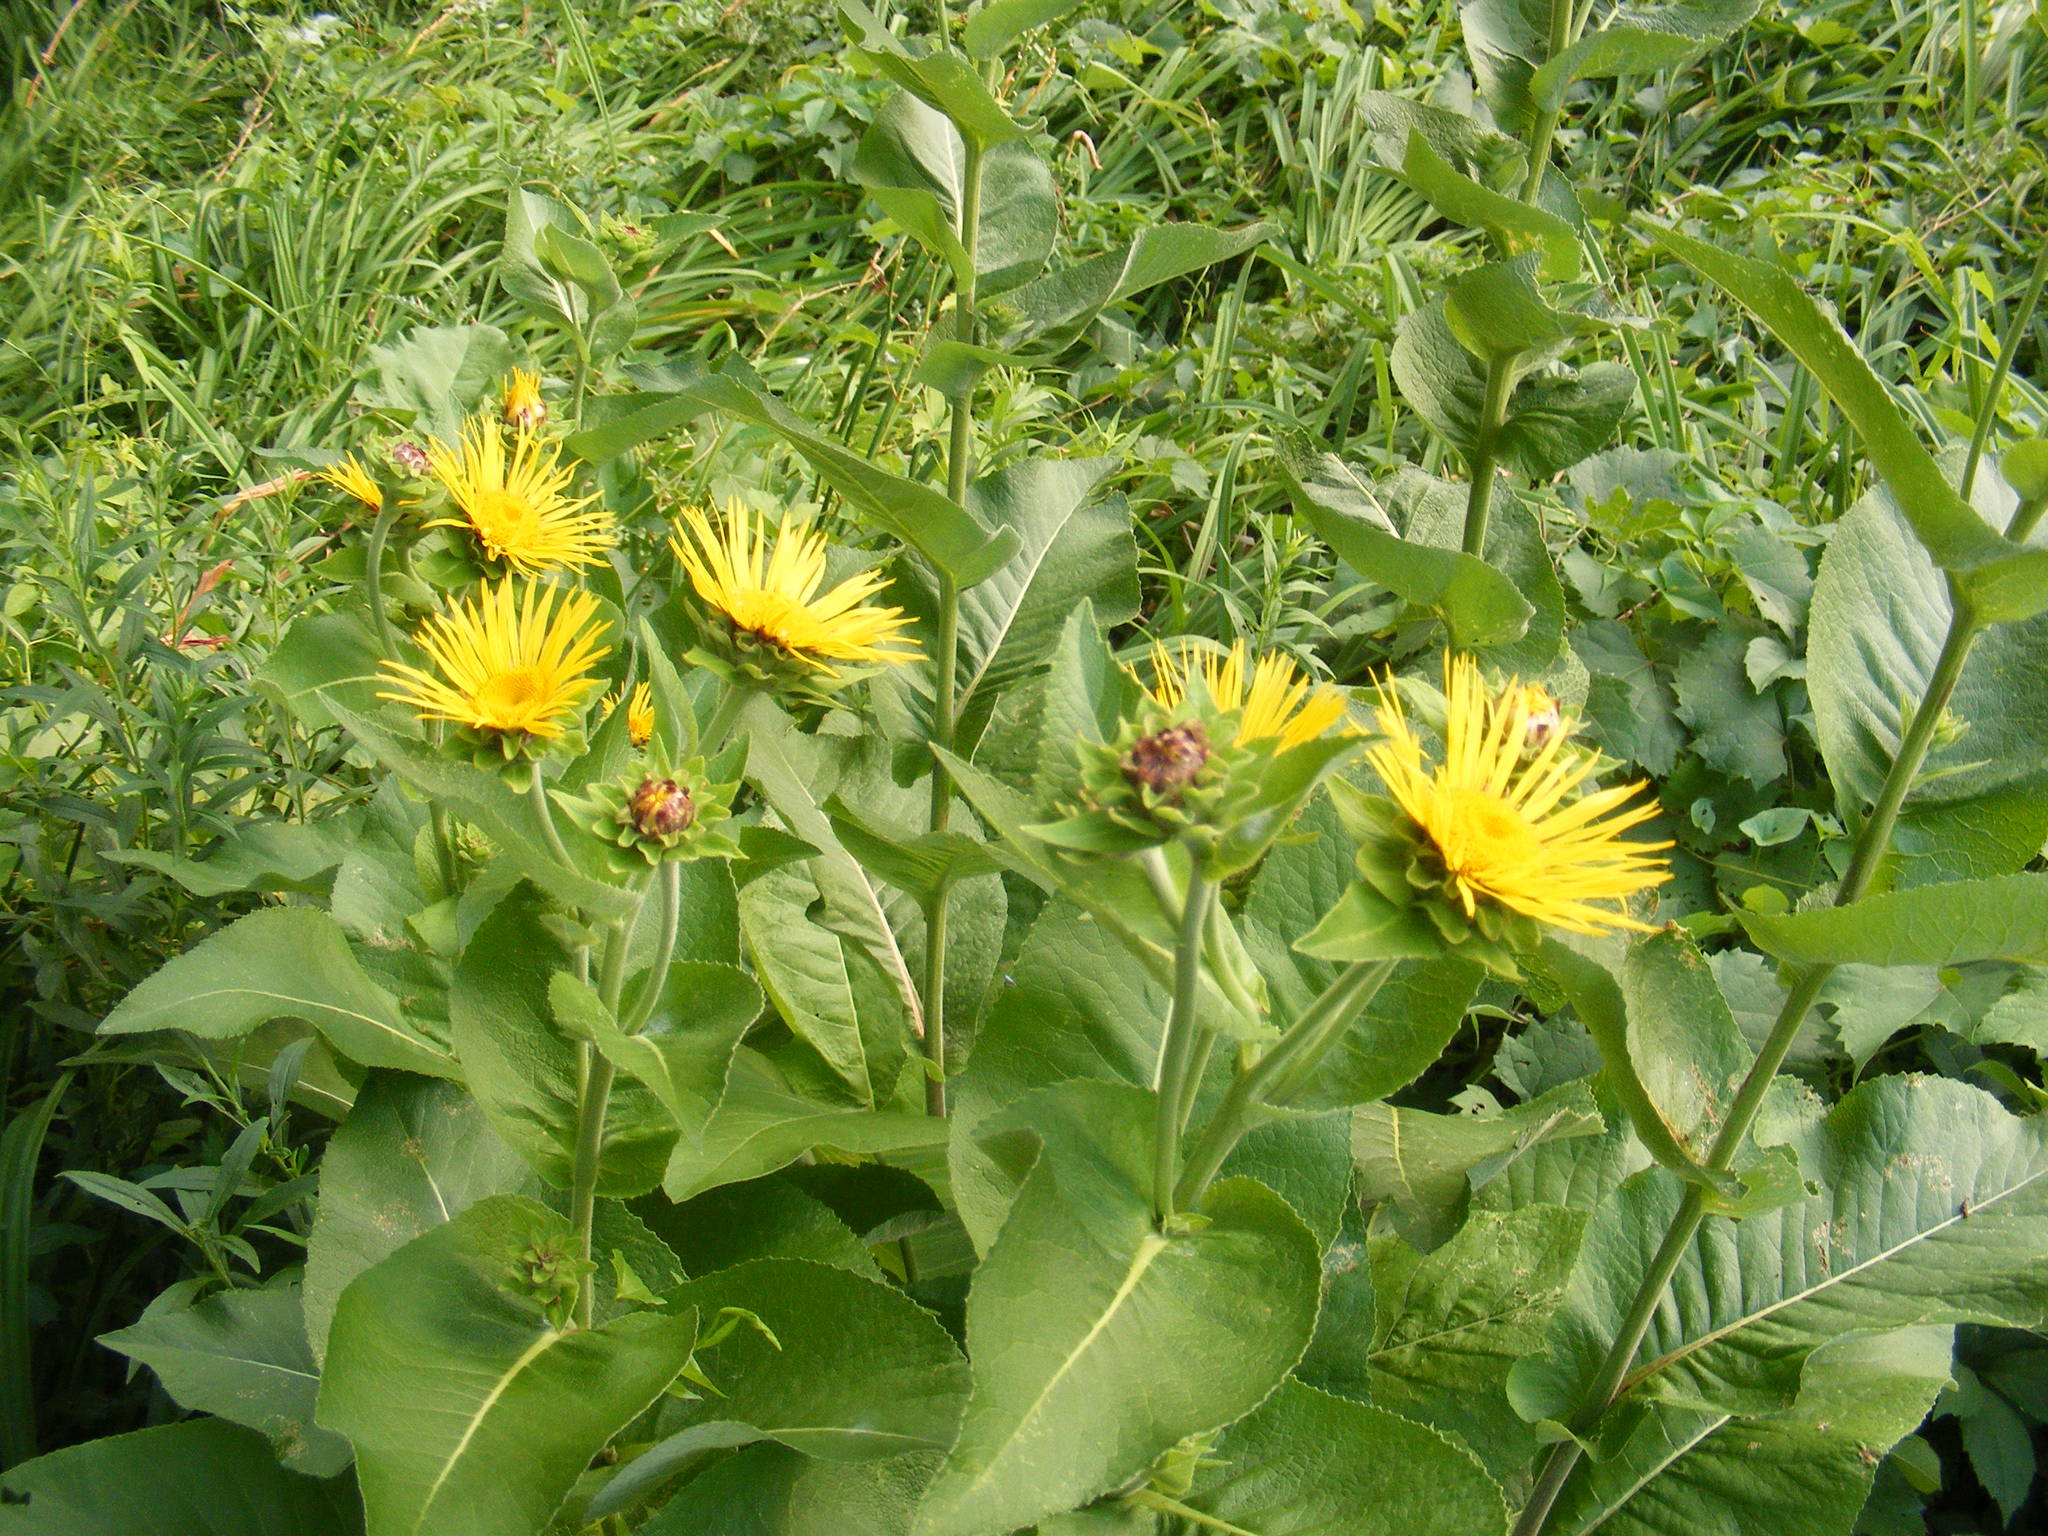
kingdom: Plantae
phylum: Tracheophyta
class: Magnoliopsida
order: Asterales
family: Asteraceae
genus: Inula
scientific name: Inula helenium
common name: Elecampane
